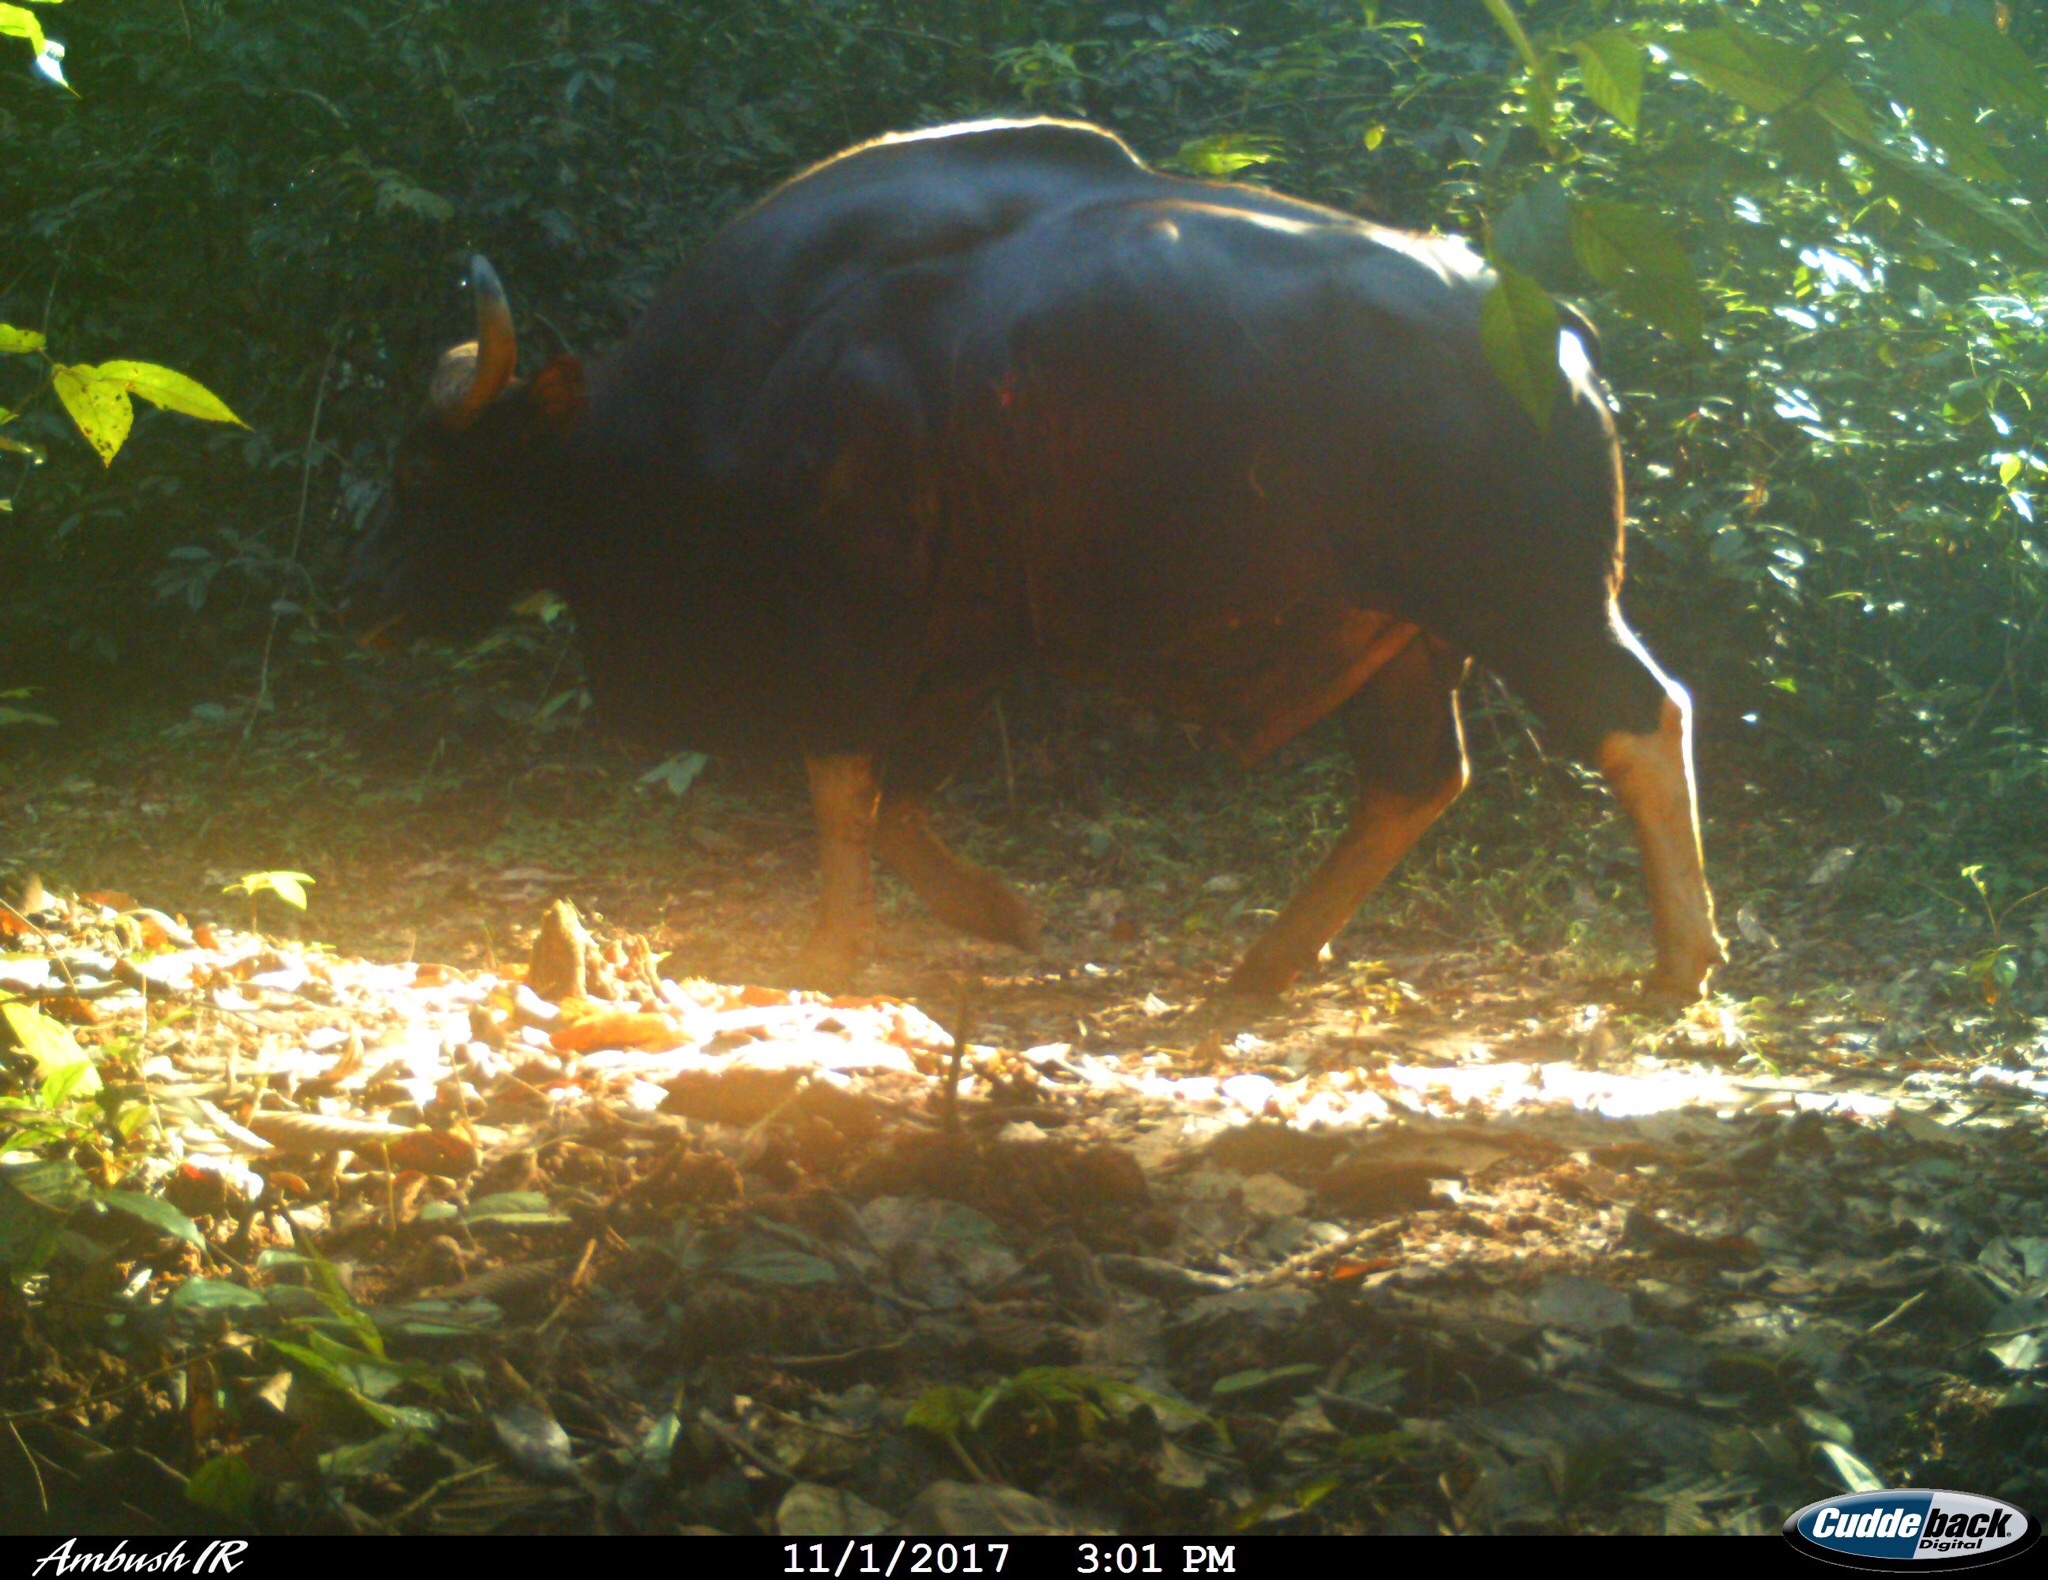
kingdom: Animalia
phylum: Chordata
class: Mammalia
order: Artiodactyla
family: Bovidae
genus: Bos
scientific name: Bos frontalis
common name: Gaur
